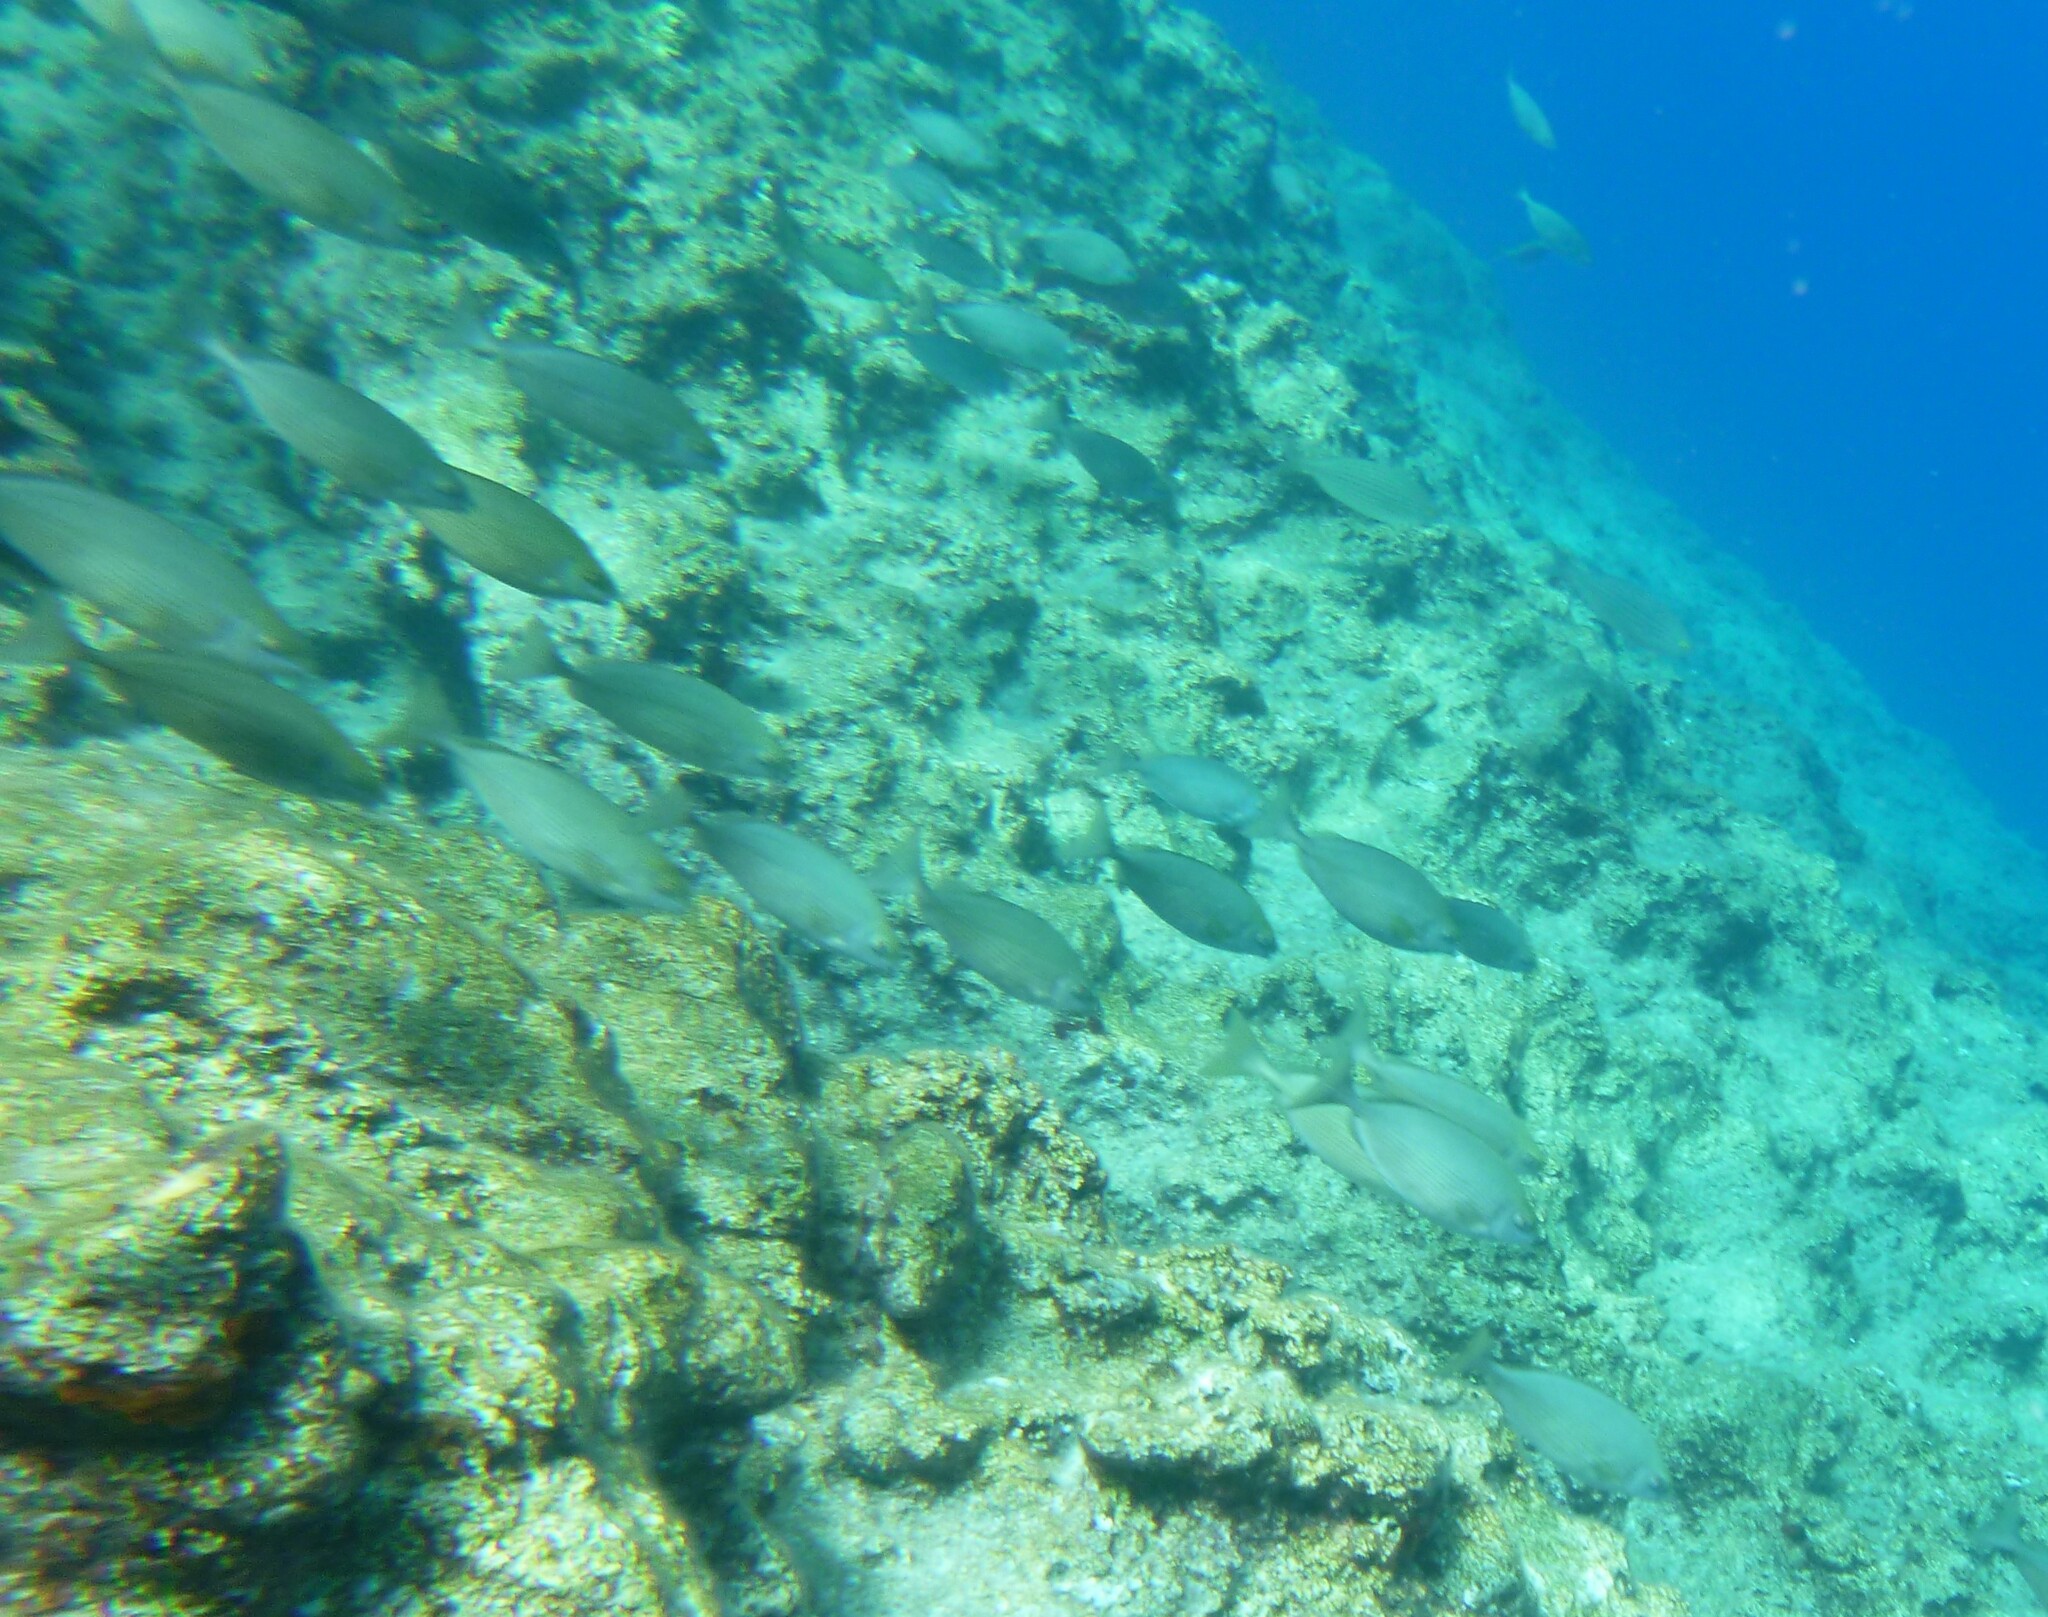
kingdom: Animalia
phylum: Chordata
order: Perciformes
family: Siganidae
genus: Siganus
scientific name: Siganus rivulatus
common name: Marbled spinefoot
